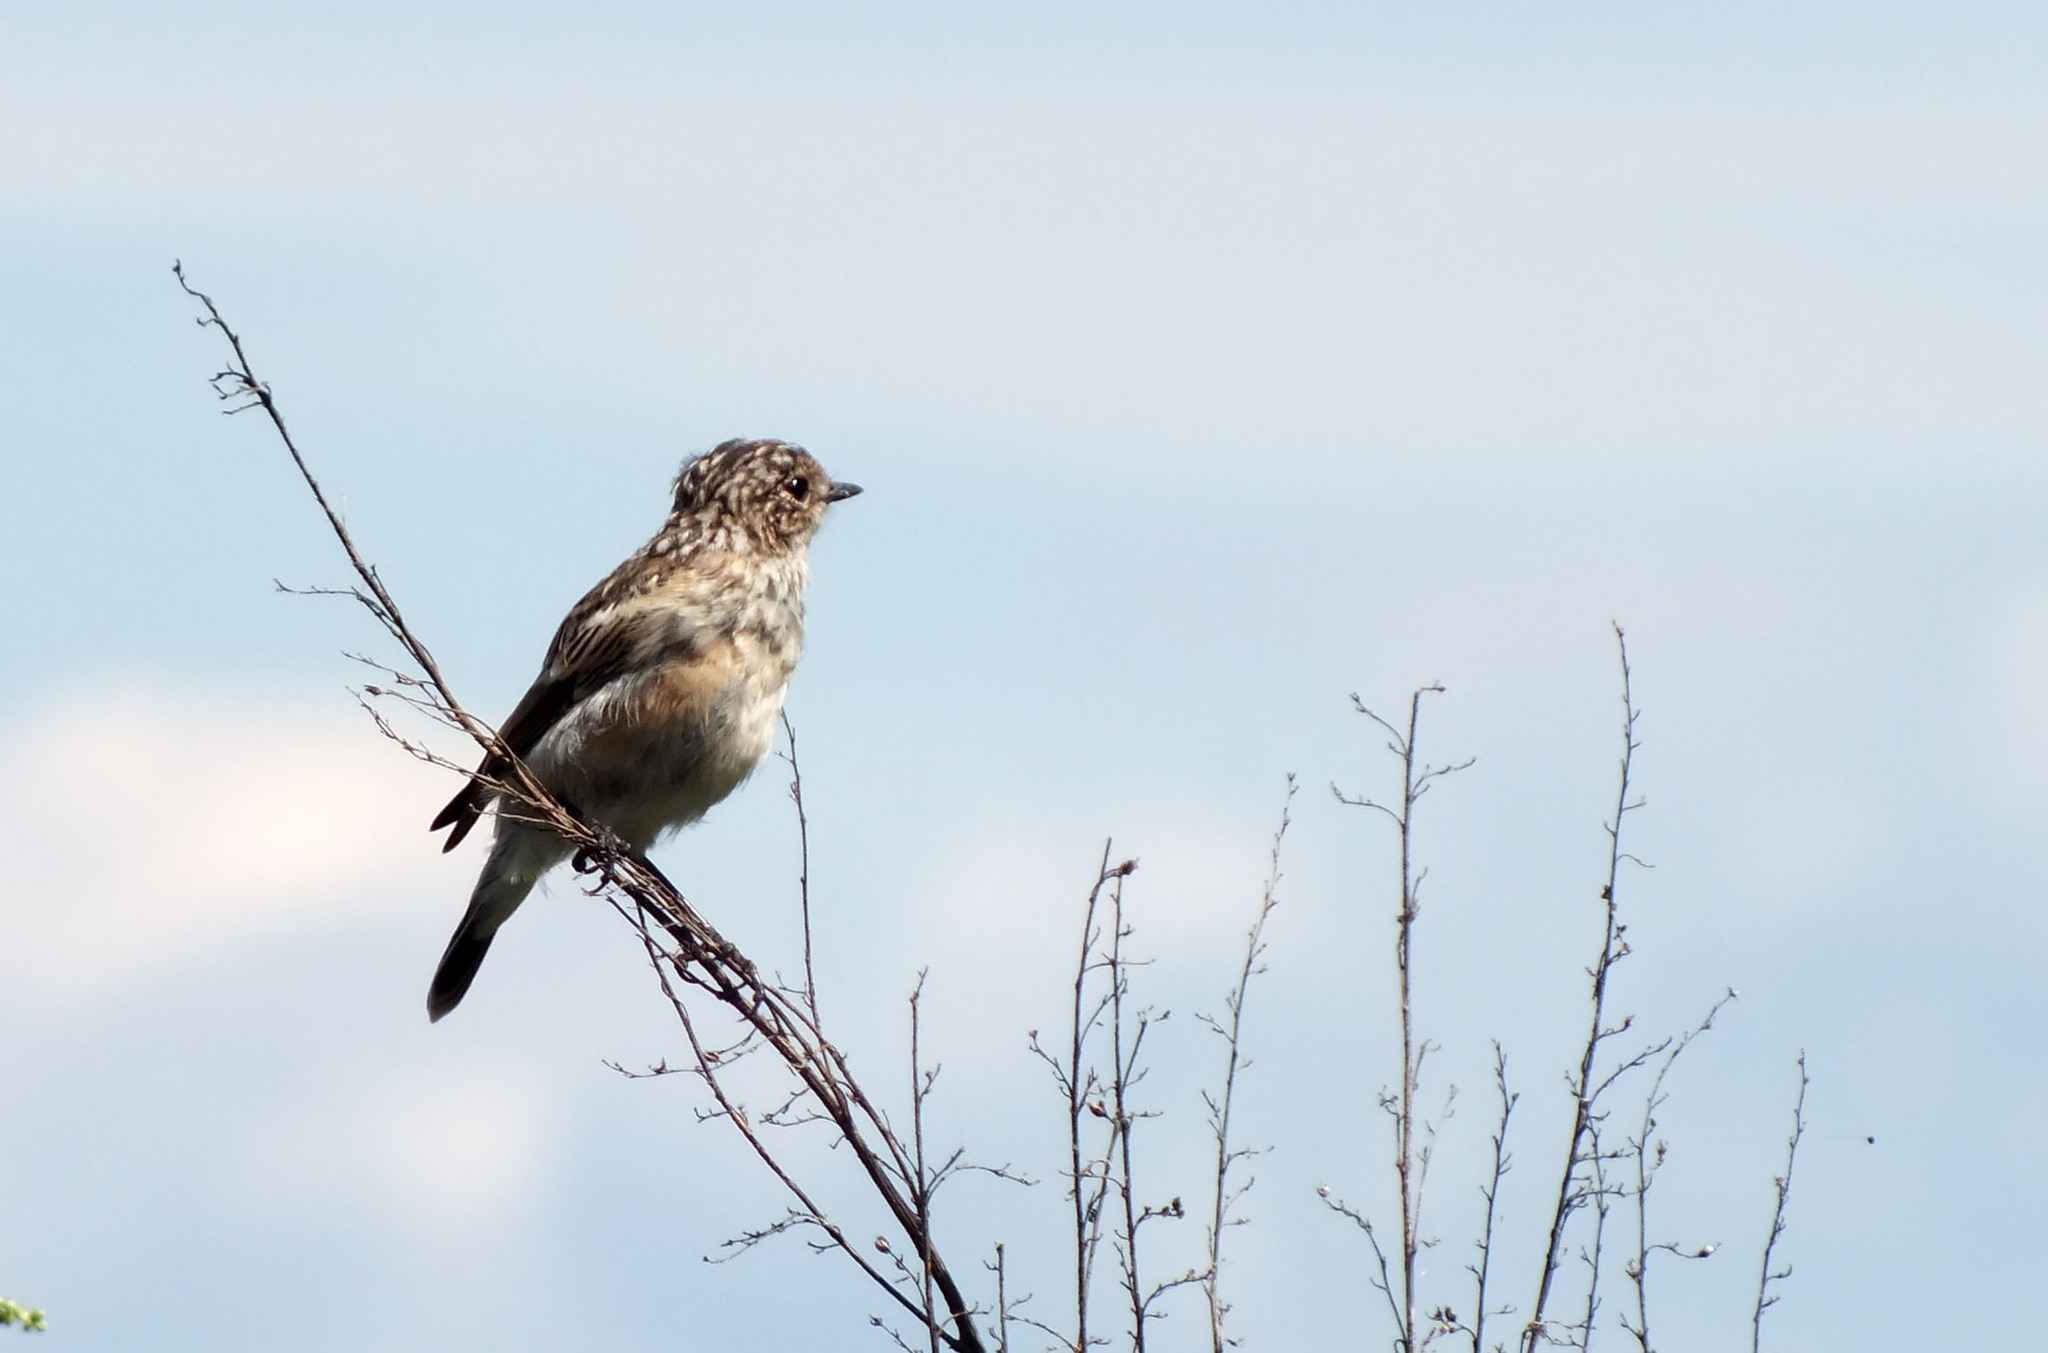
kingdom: Animalia
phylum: Chordata
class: Aves
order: Passeriformes
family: Muscicapidae
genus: Saxicola
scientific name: Saxicola maurus
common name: Siberian stonechat
